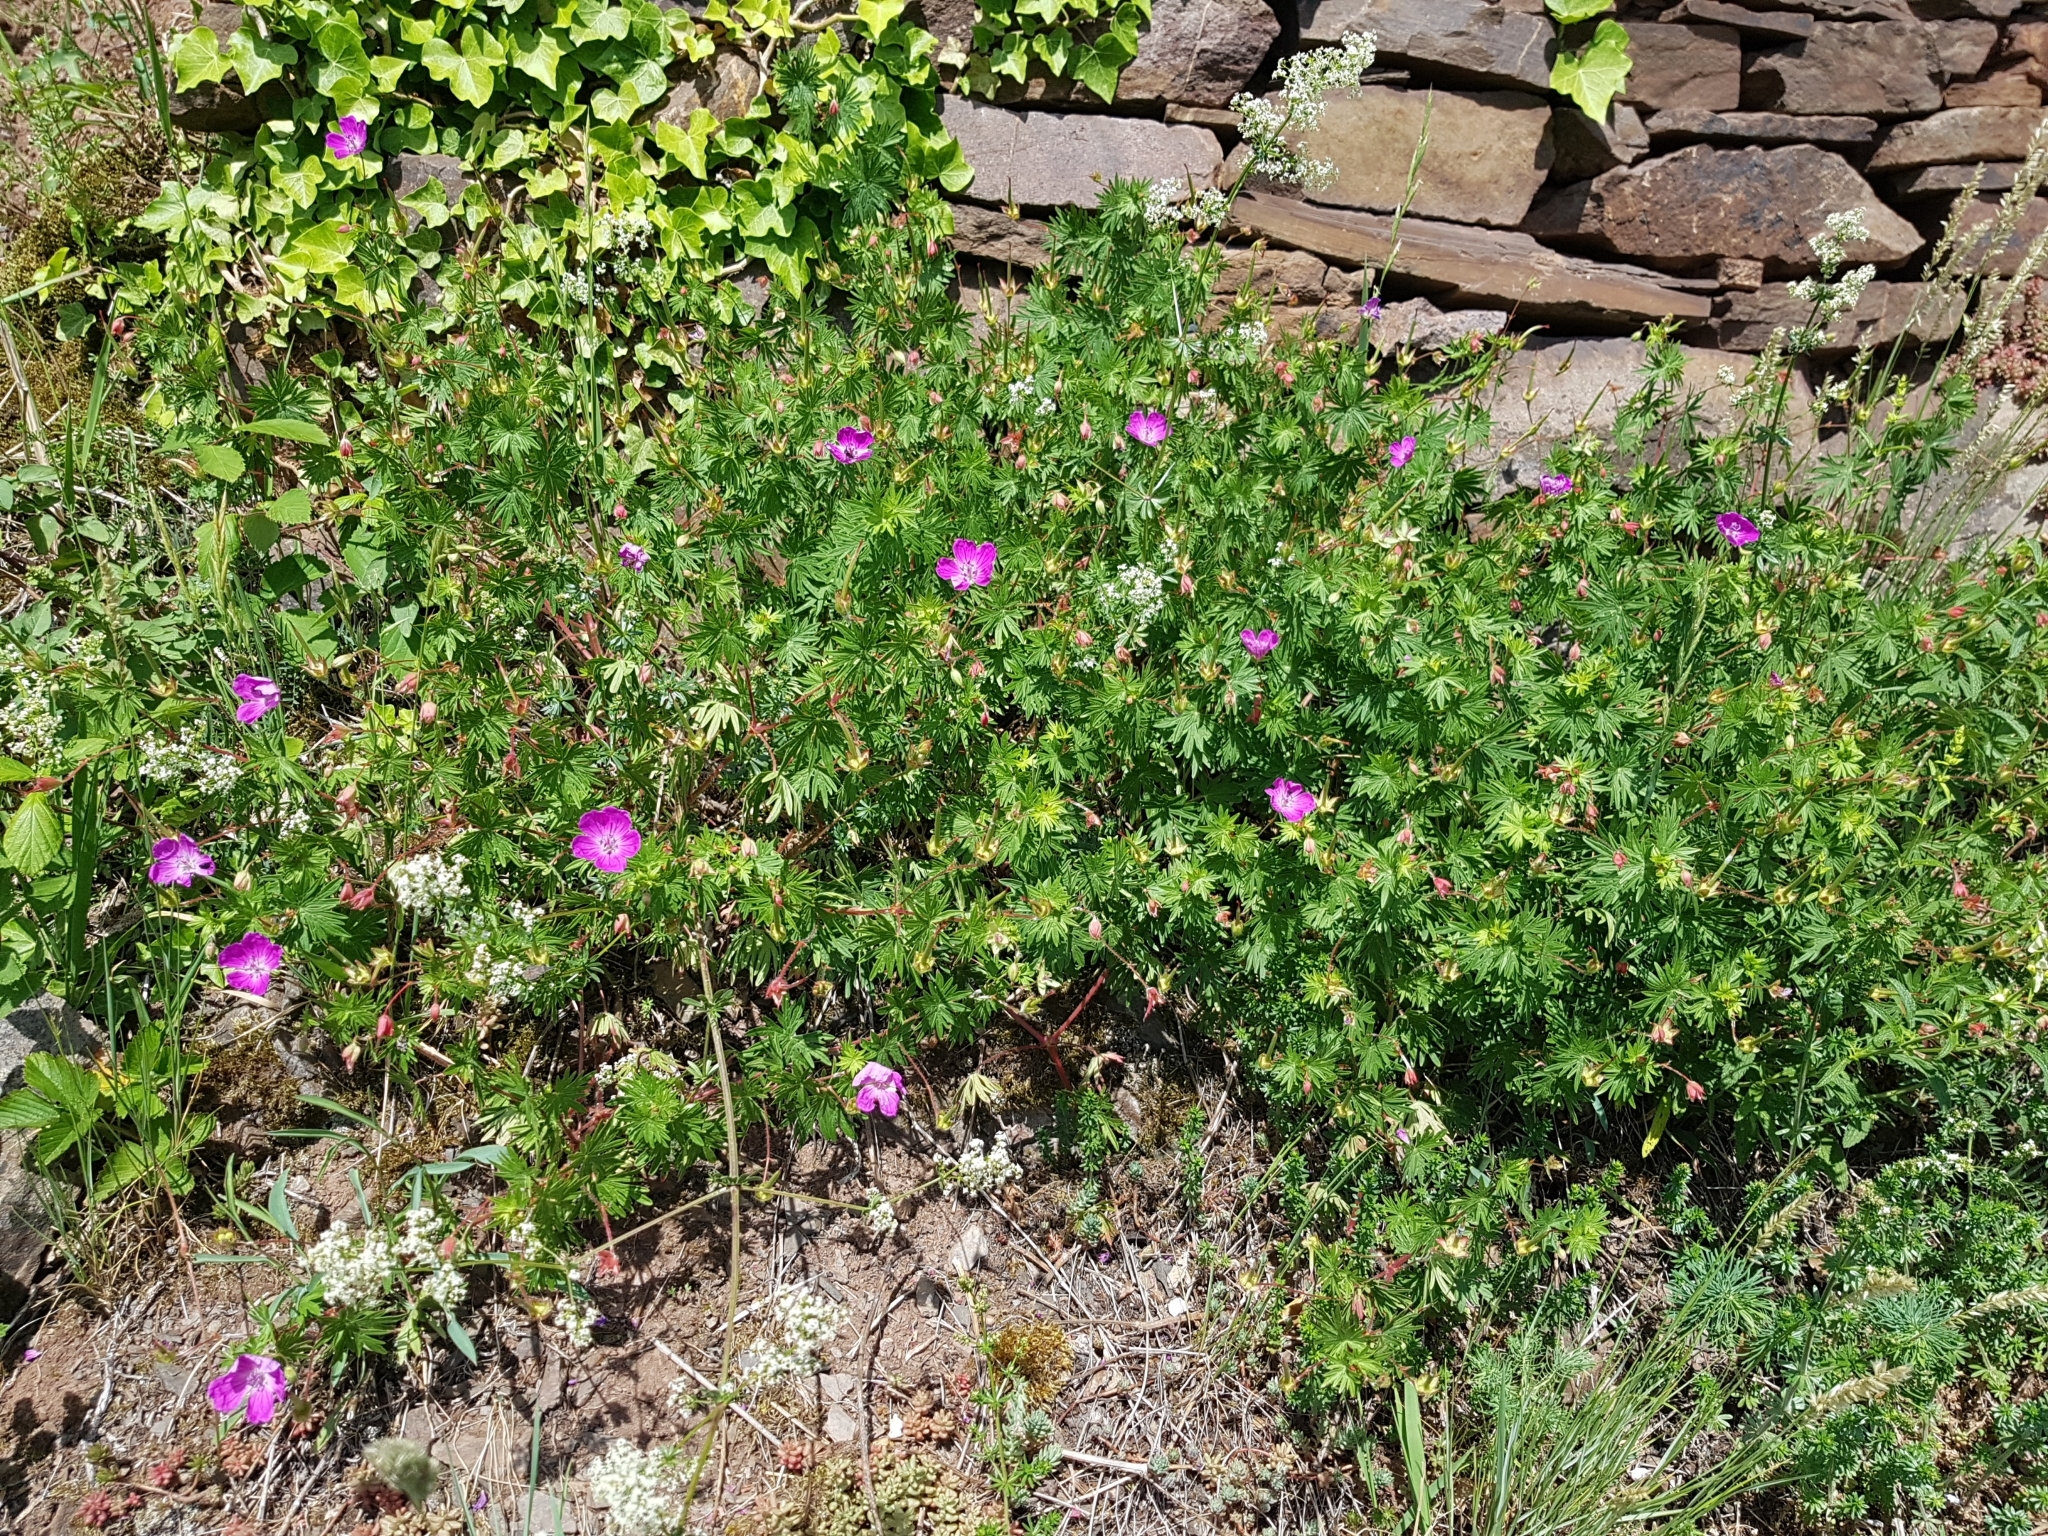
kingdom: Plantae
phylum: Tracheophyta
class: Magnoliopsida
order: Geraniales
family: Geraniaceae
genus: Geranium
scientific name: Geranium sanguineum
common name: Bloody crane's-bill
